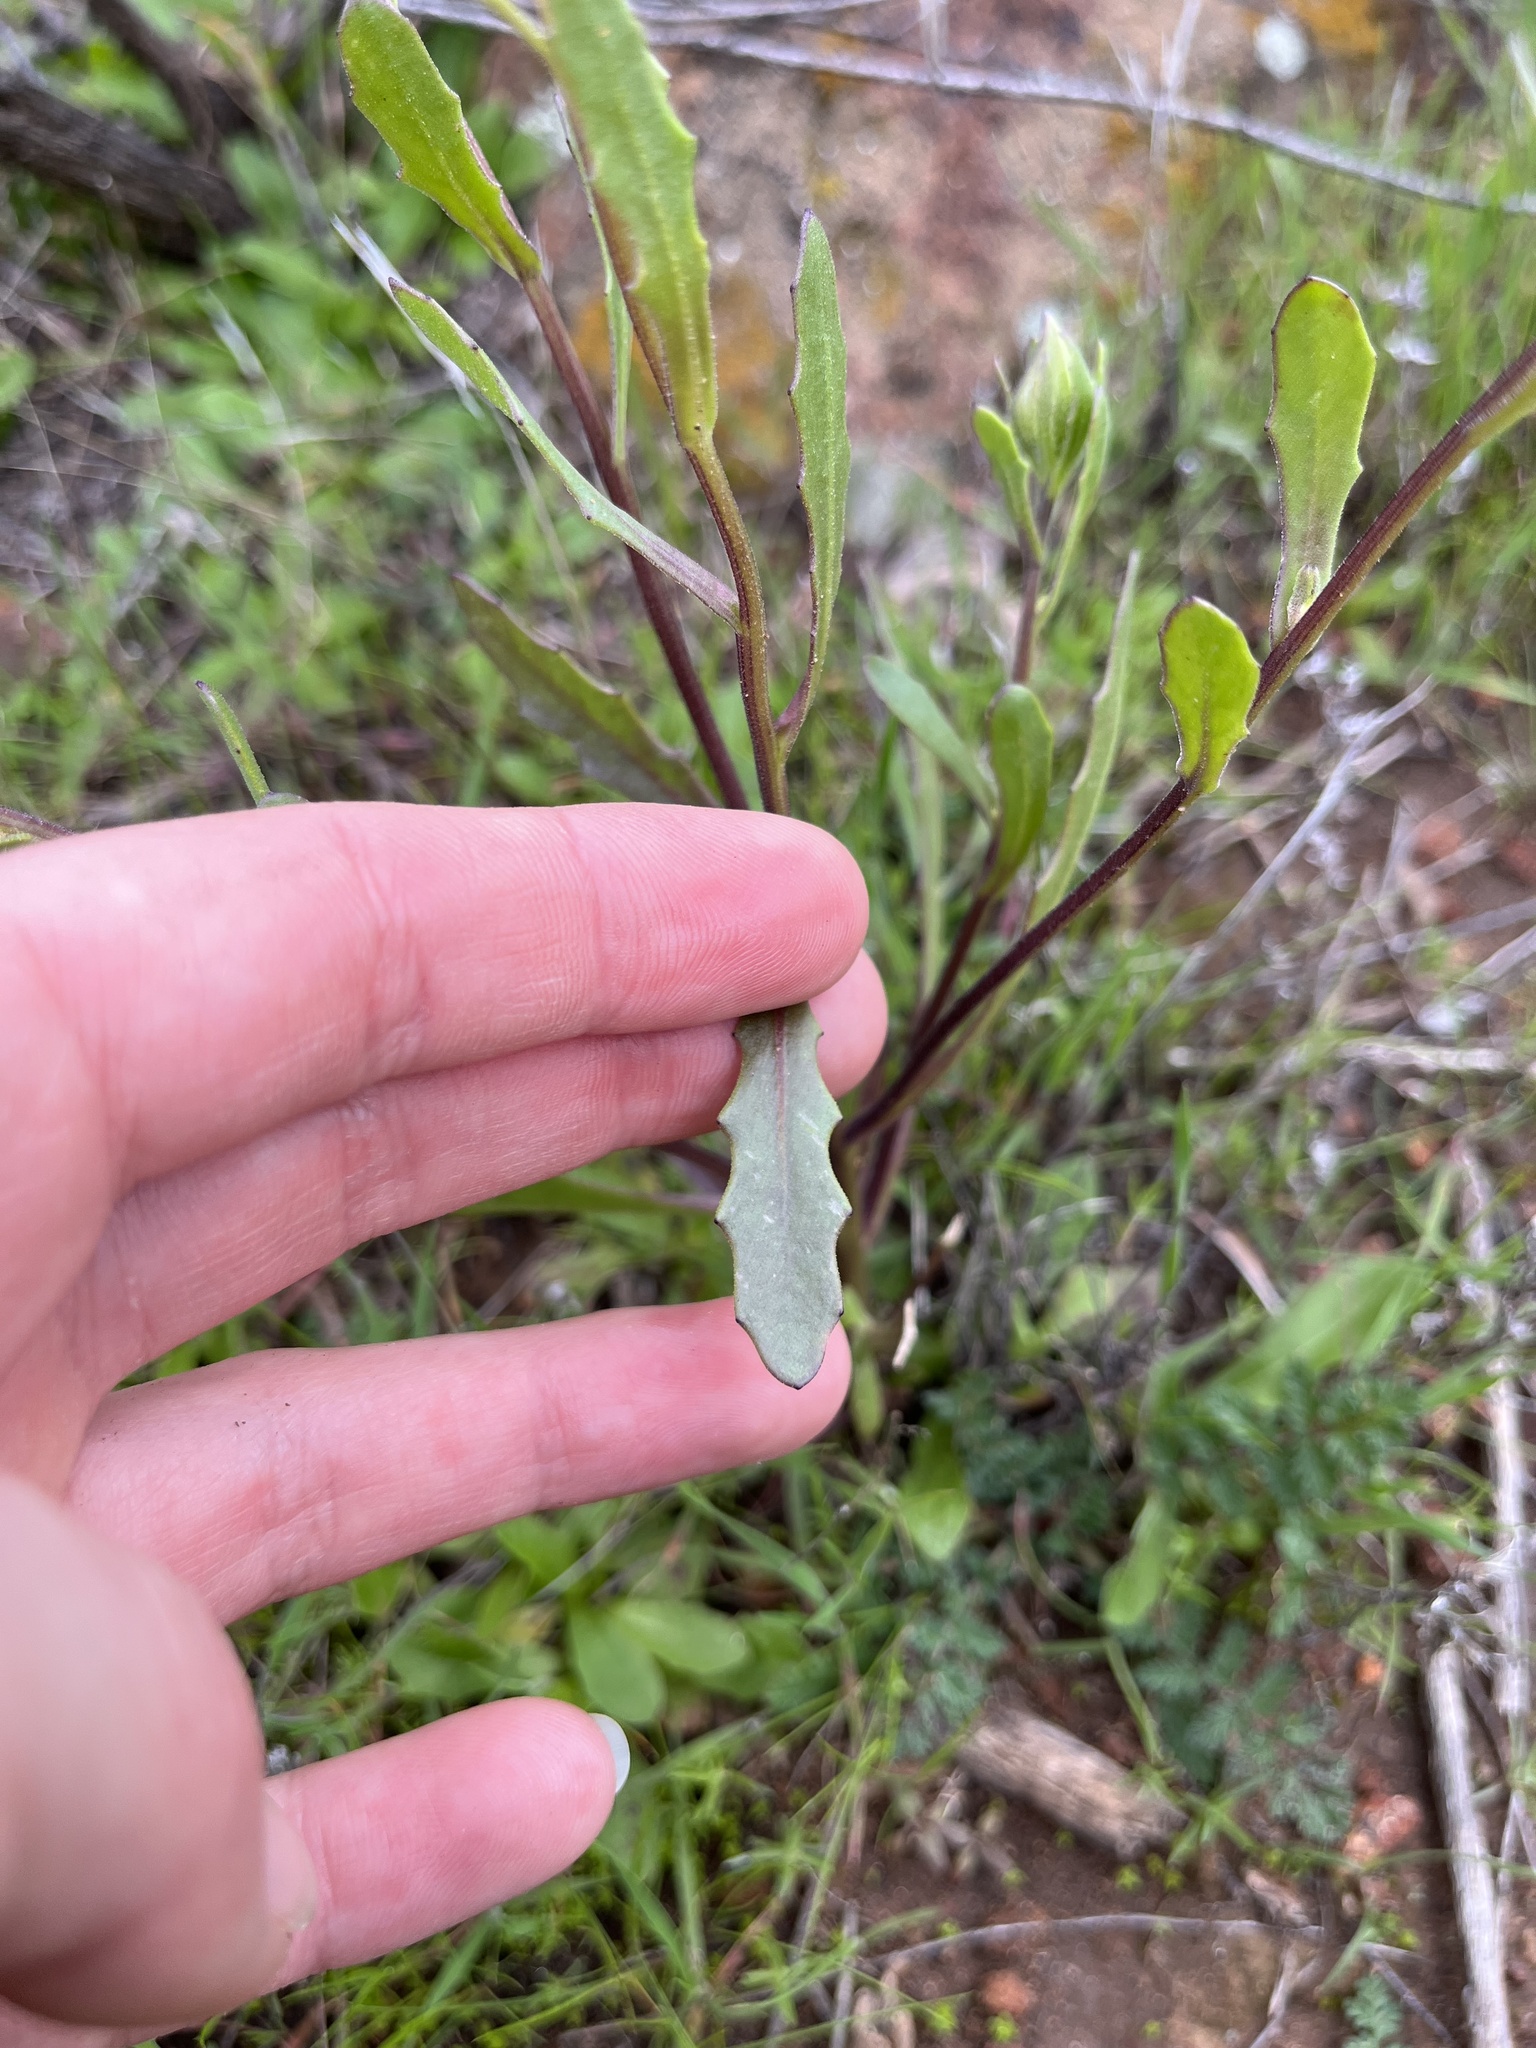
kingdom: Plantae
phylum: Tracheophyta
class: Magnoliopsida
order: Asterales
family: Asteraceae
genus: Dimorphotheca
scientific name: Dimorphotheca sinuata
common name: Glandular cape marigold
